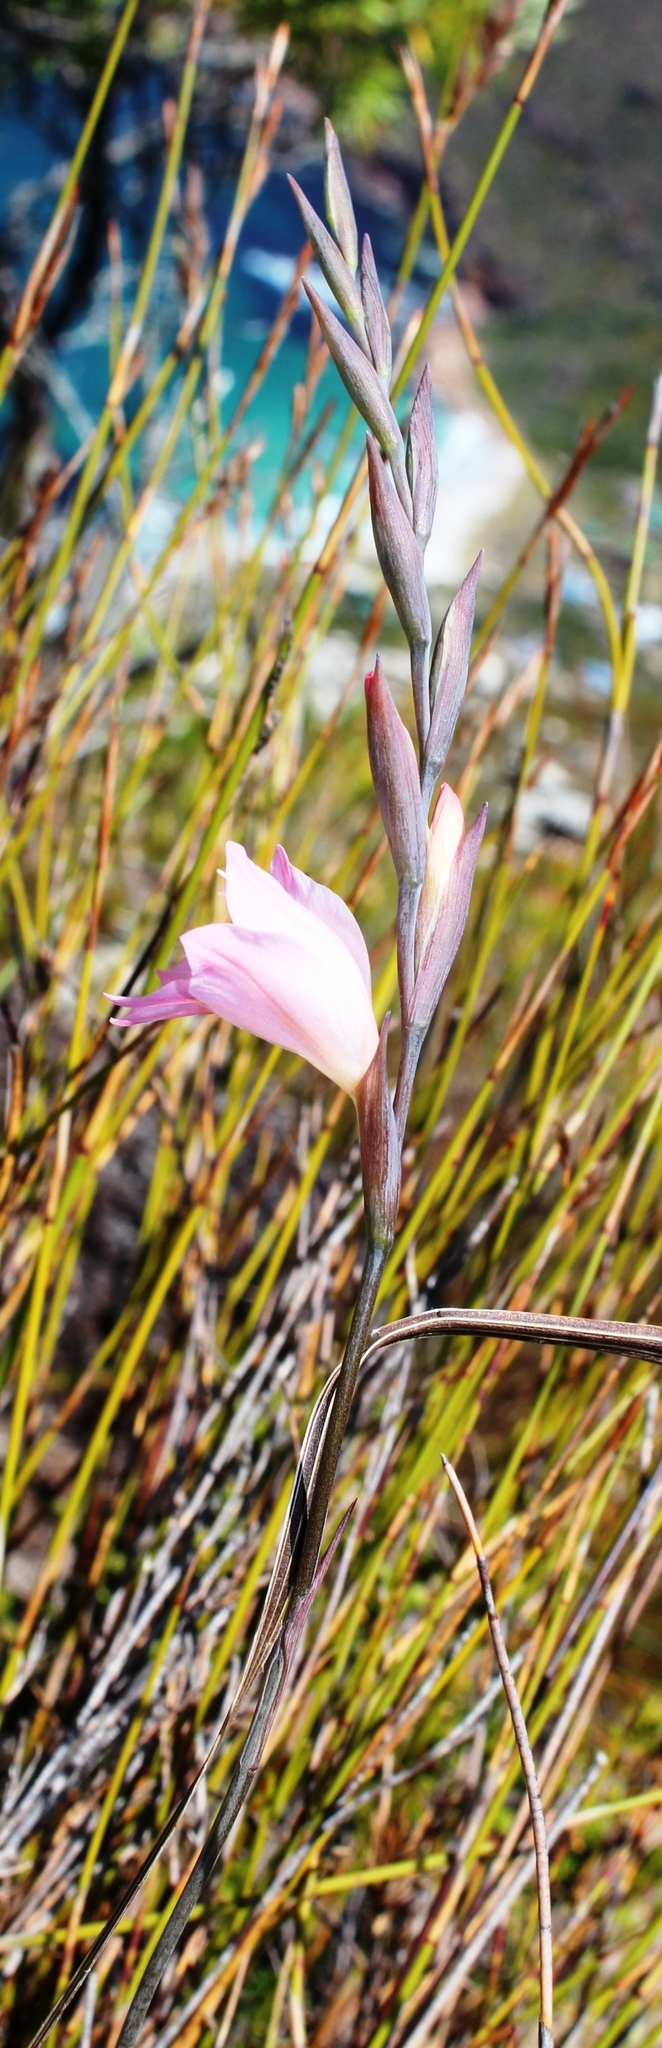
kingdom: Plantae
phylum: Tracheophyta
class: Liliopsida
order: Asparagales
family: Iridaceae
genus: Gladiolus
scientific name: Gladiolus brevifolius
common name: March pypie
